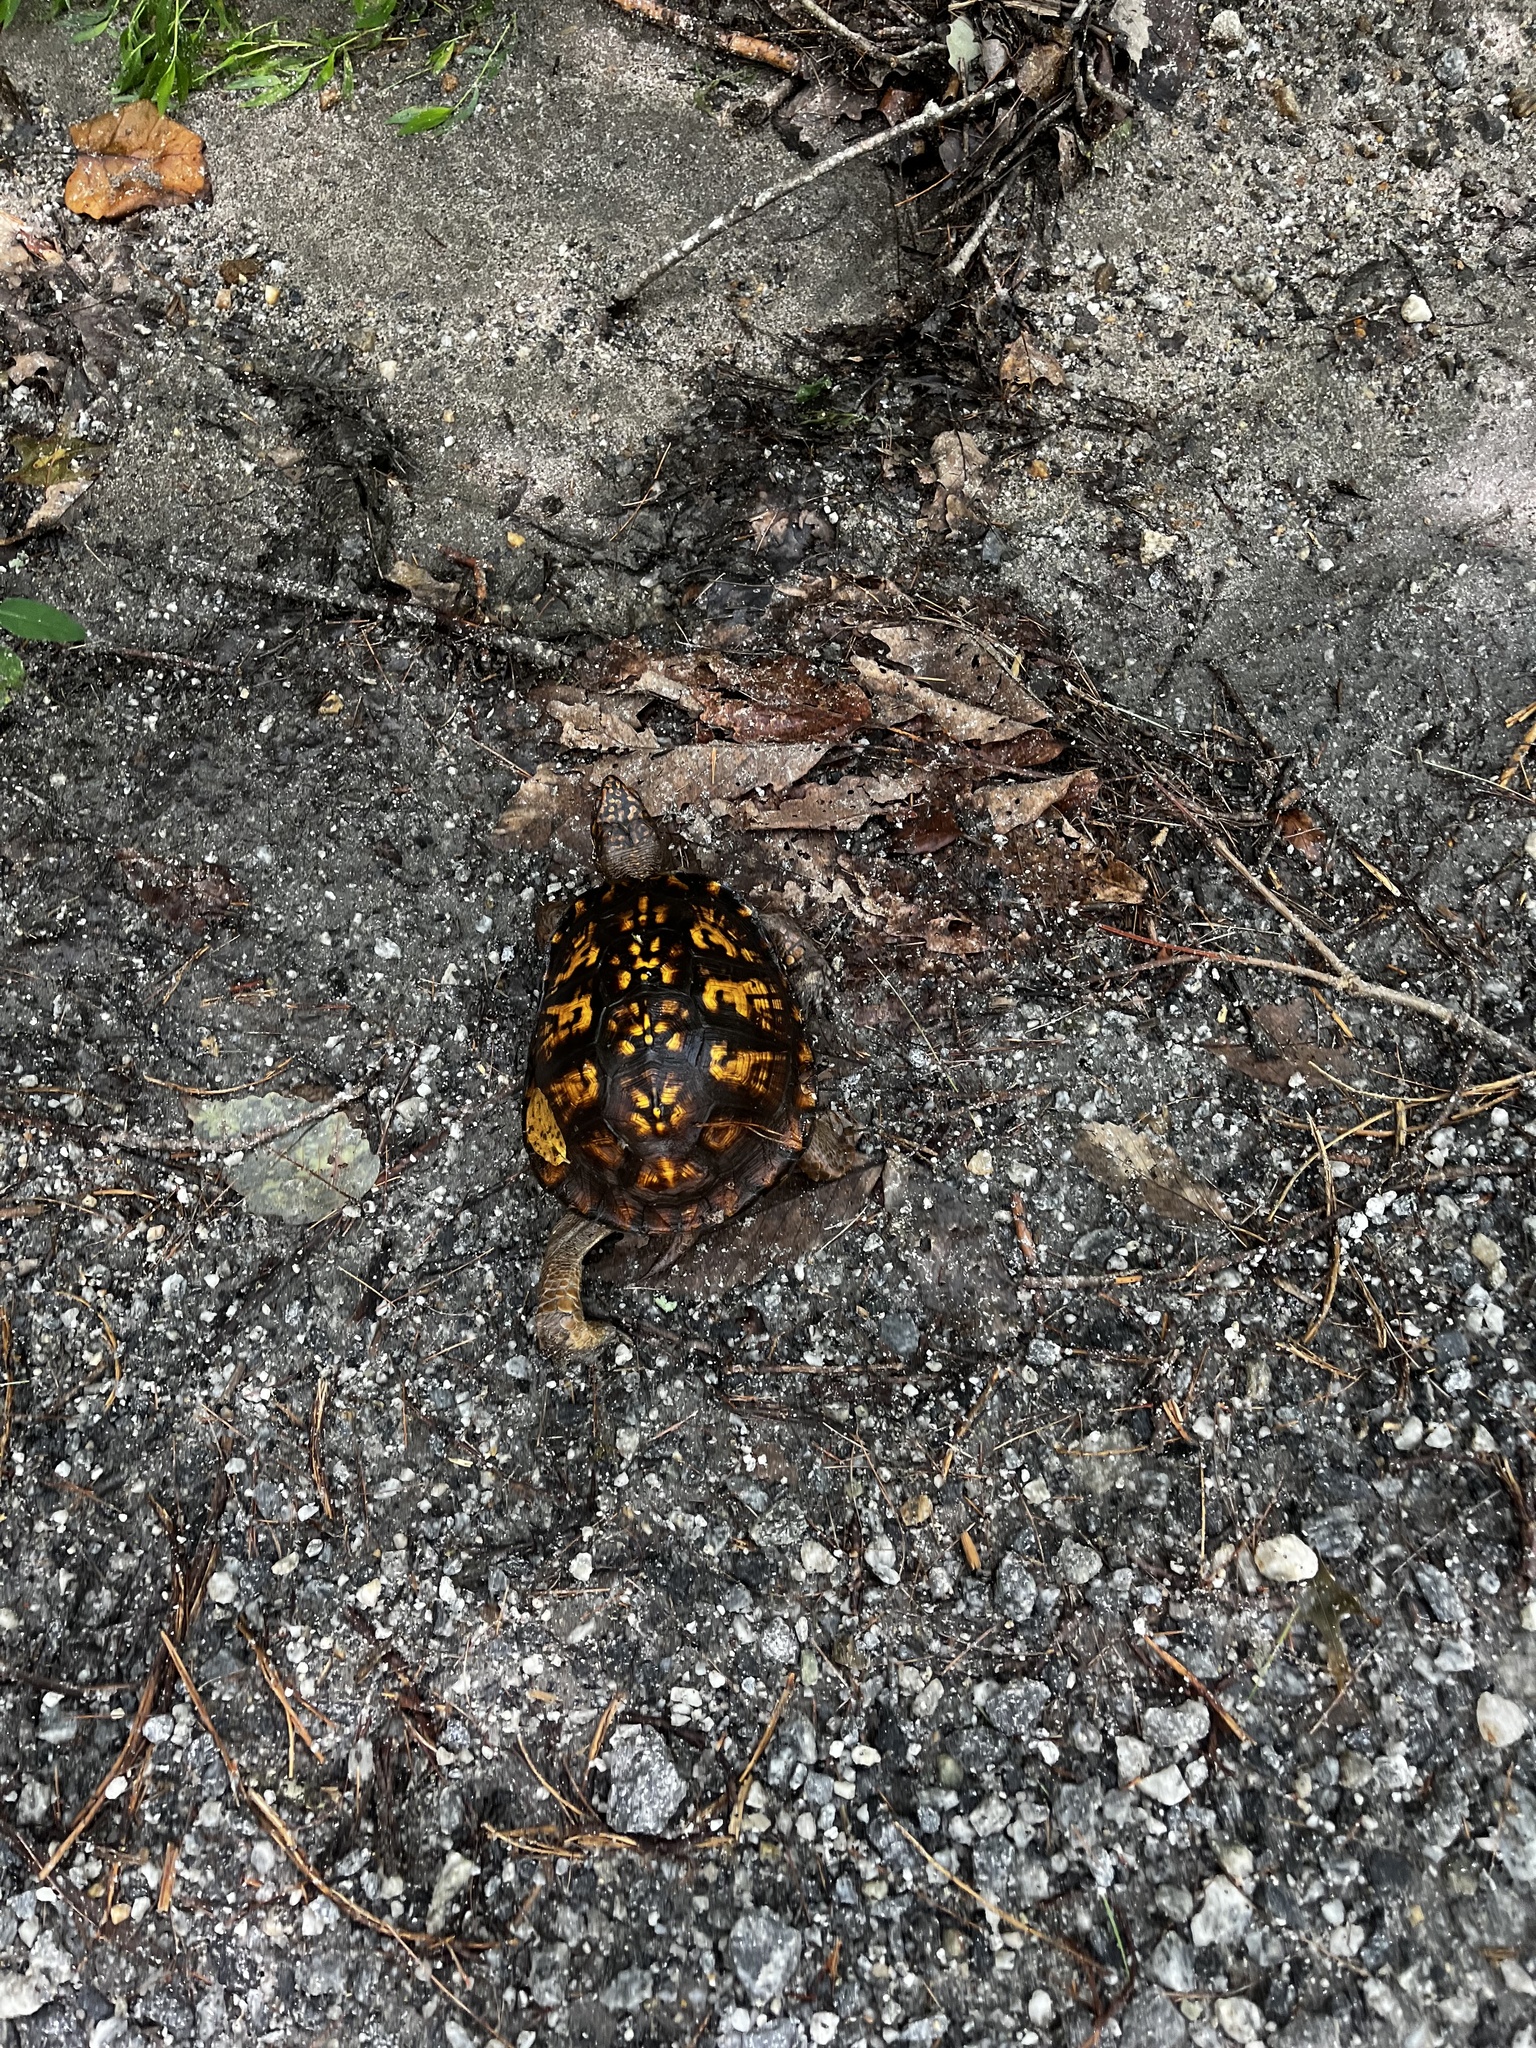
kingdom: Animalia
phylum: Chordata
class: Testudines
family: Emydidae
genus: Terrapene
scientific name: Terrapene carolina
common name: Common box turtle
